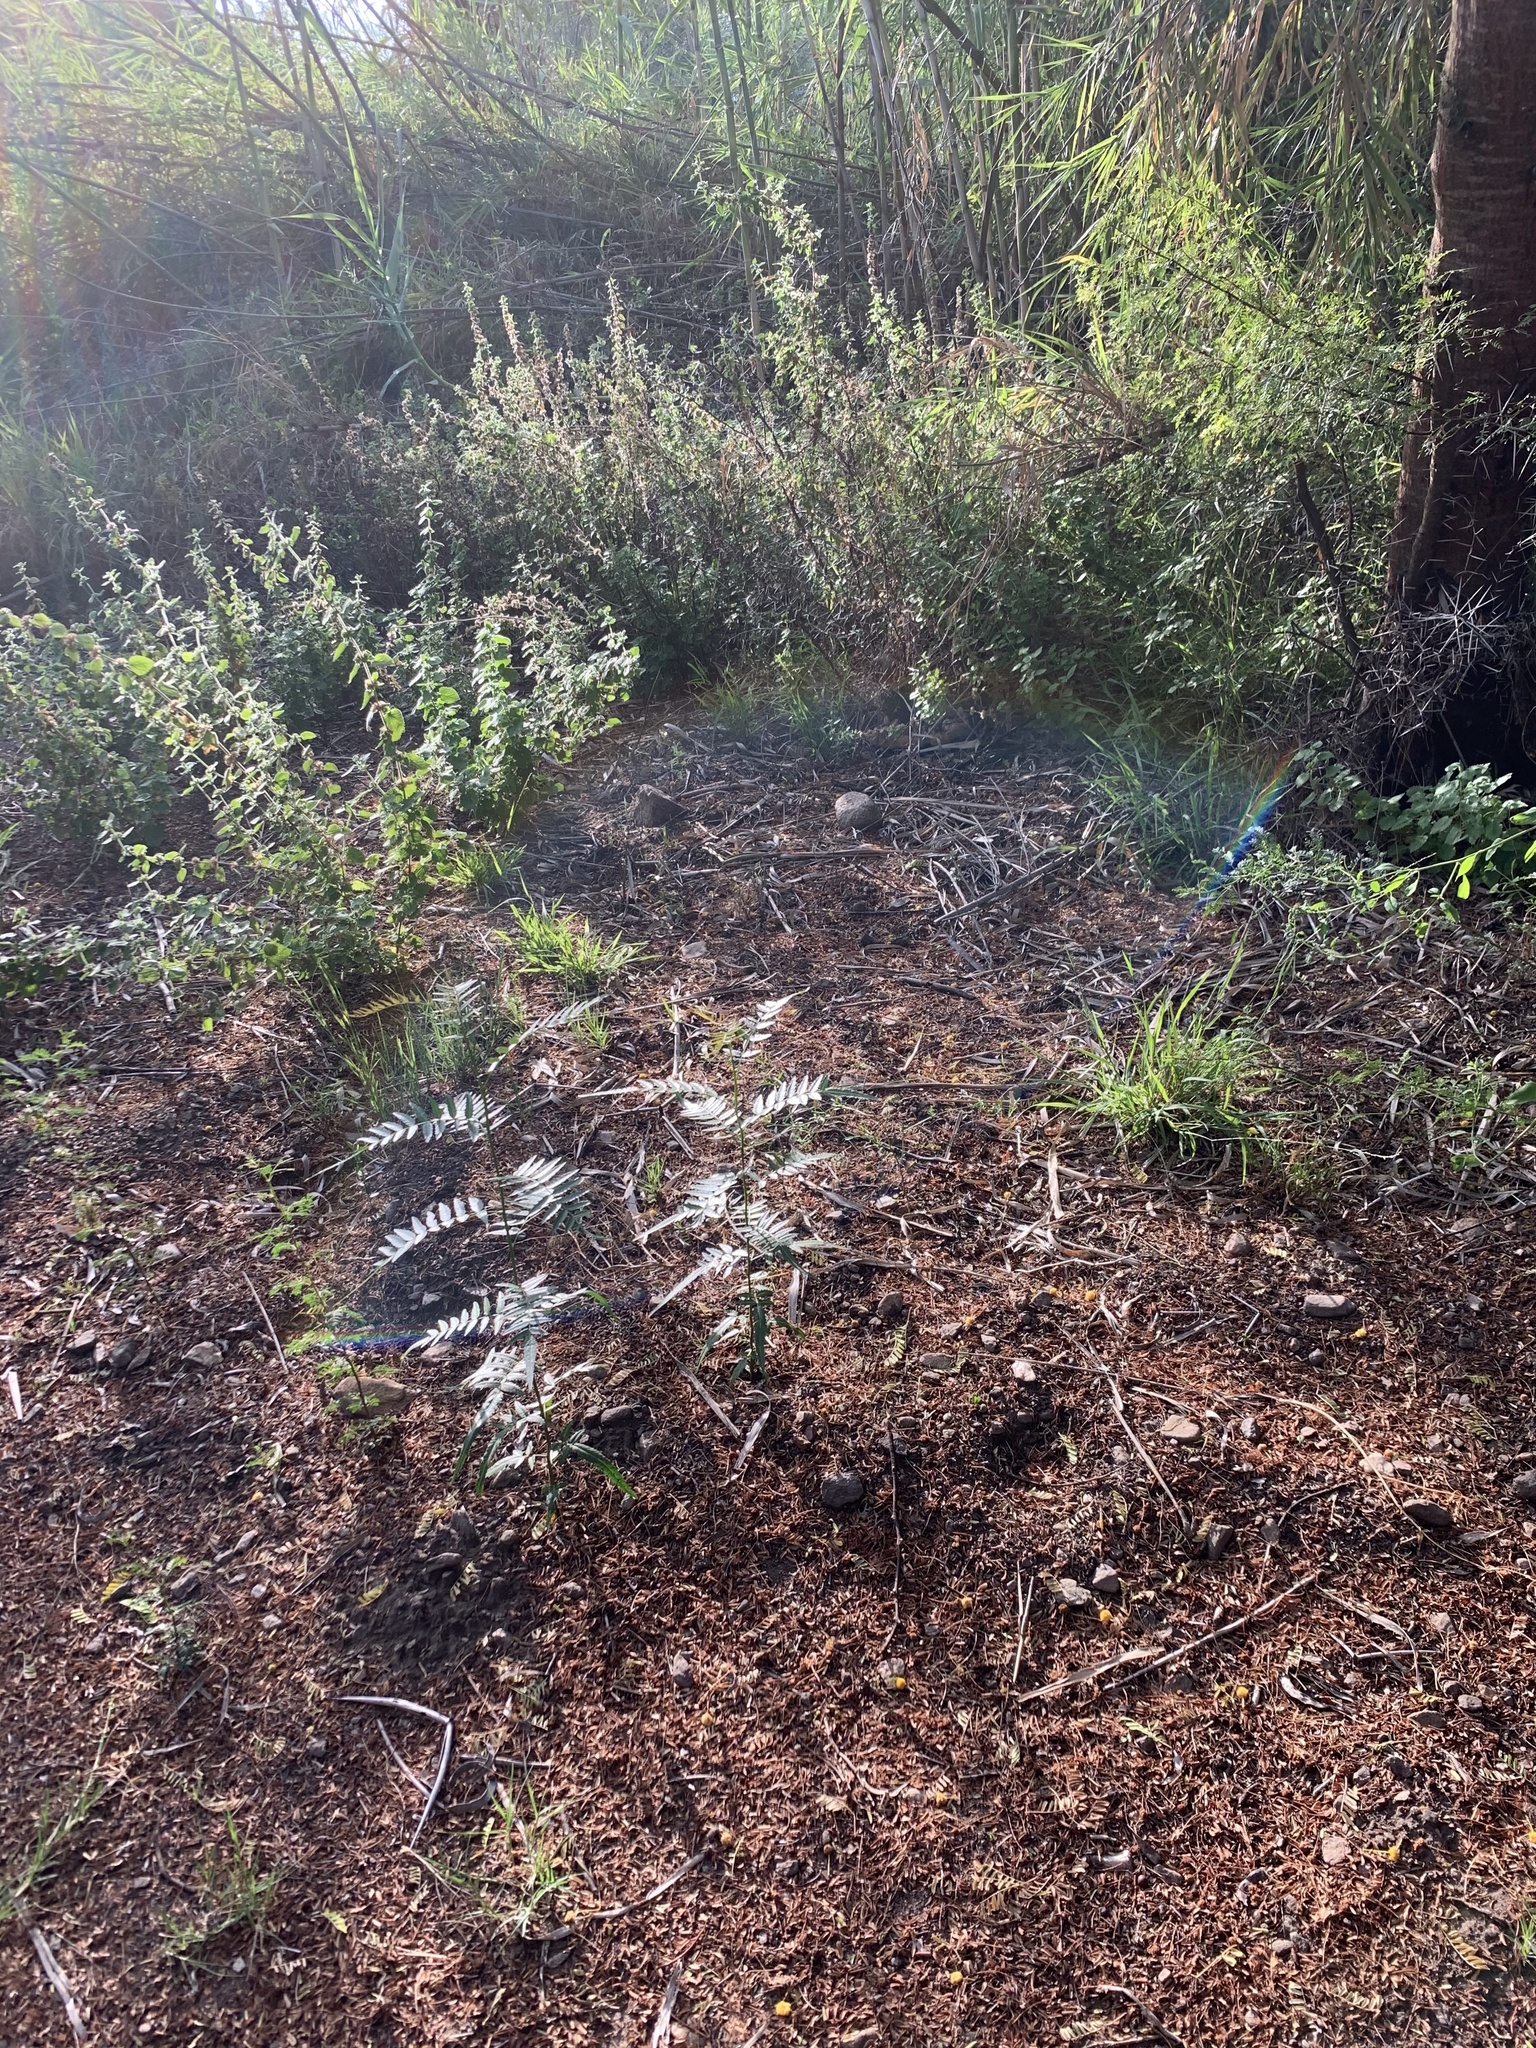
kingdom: Plantae
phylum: Tracheophyta
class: Magnoliopsida
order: Sapindales
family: Anacardiaceae
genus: Schinus
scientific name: Schinus molle
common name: Peruvian peppertree
